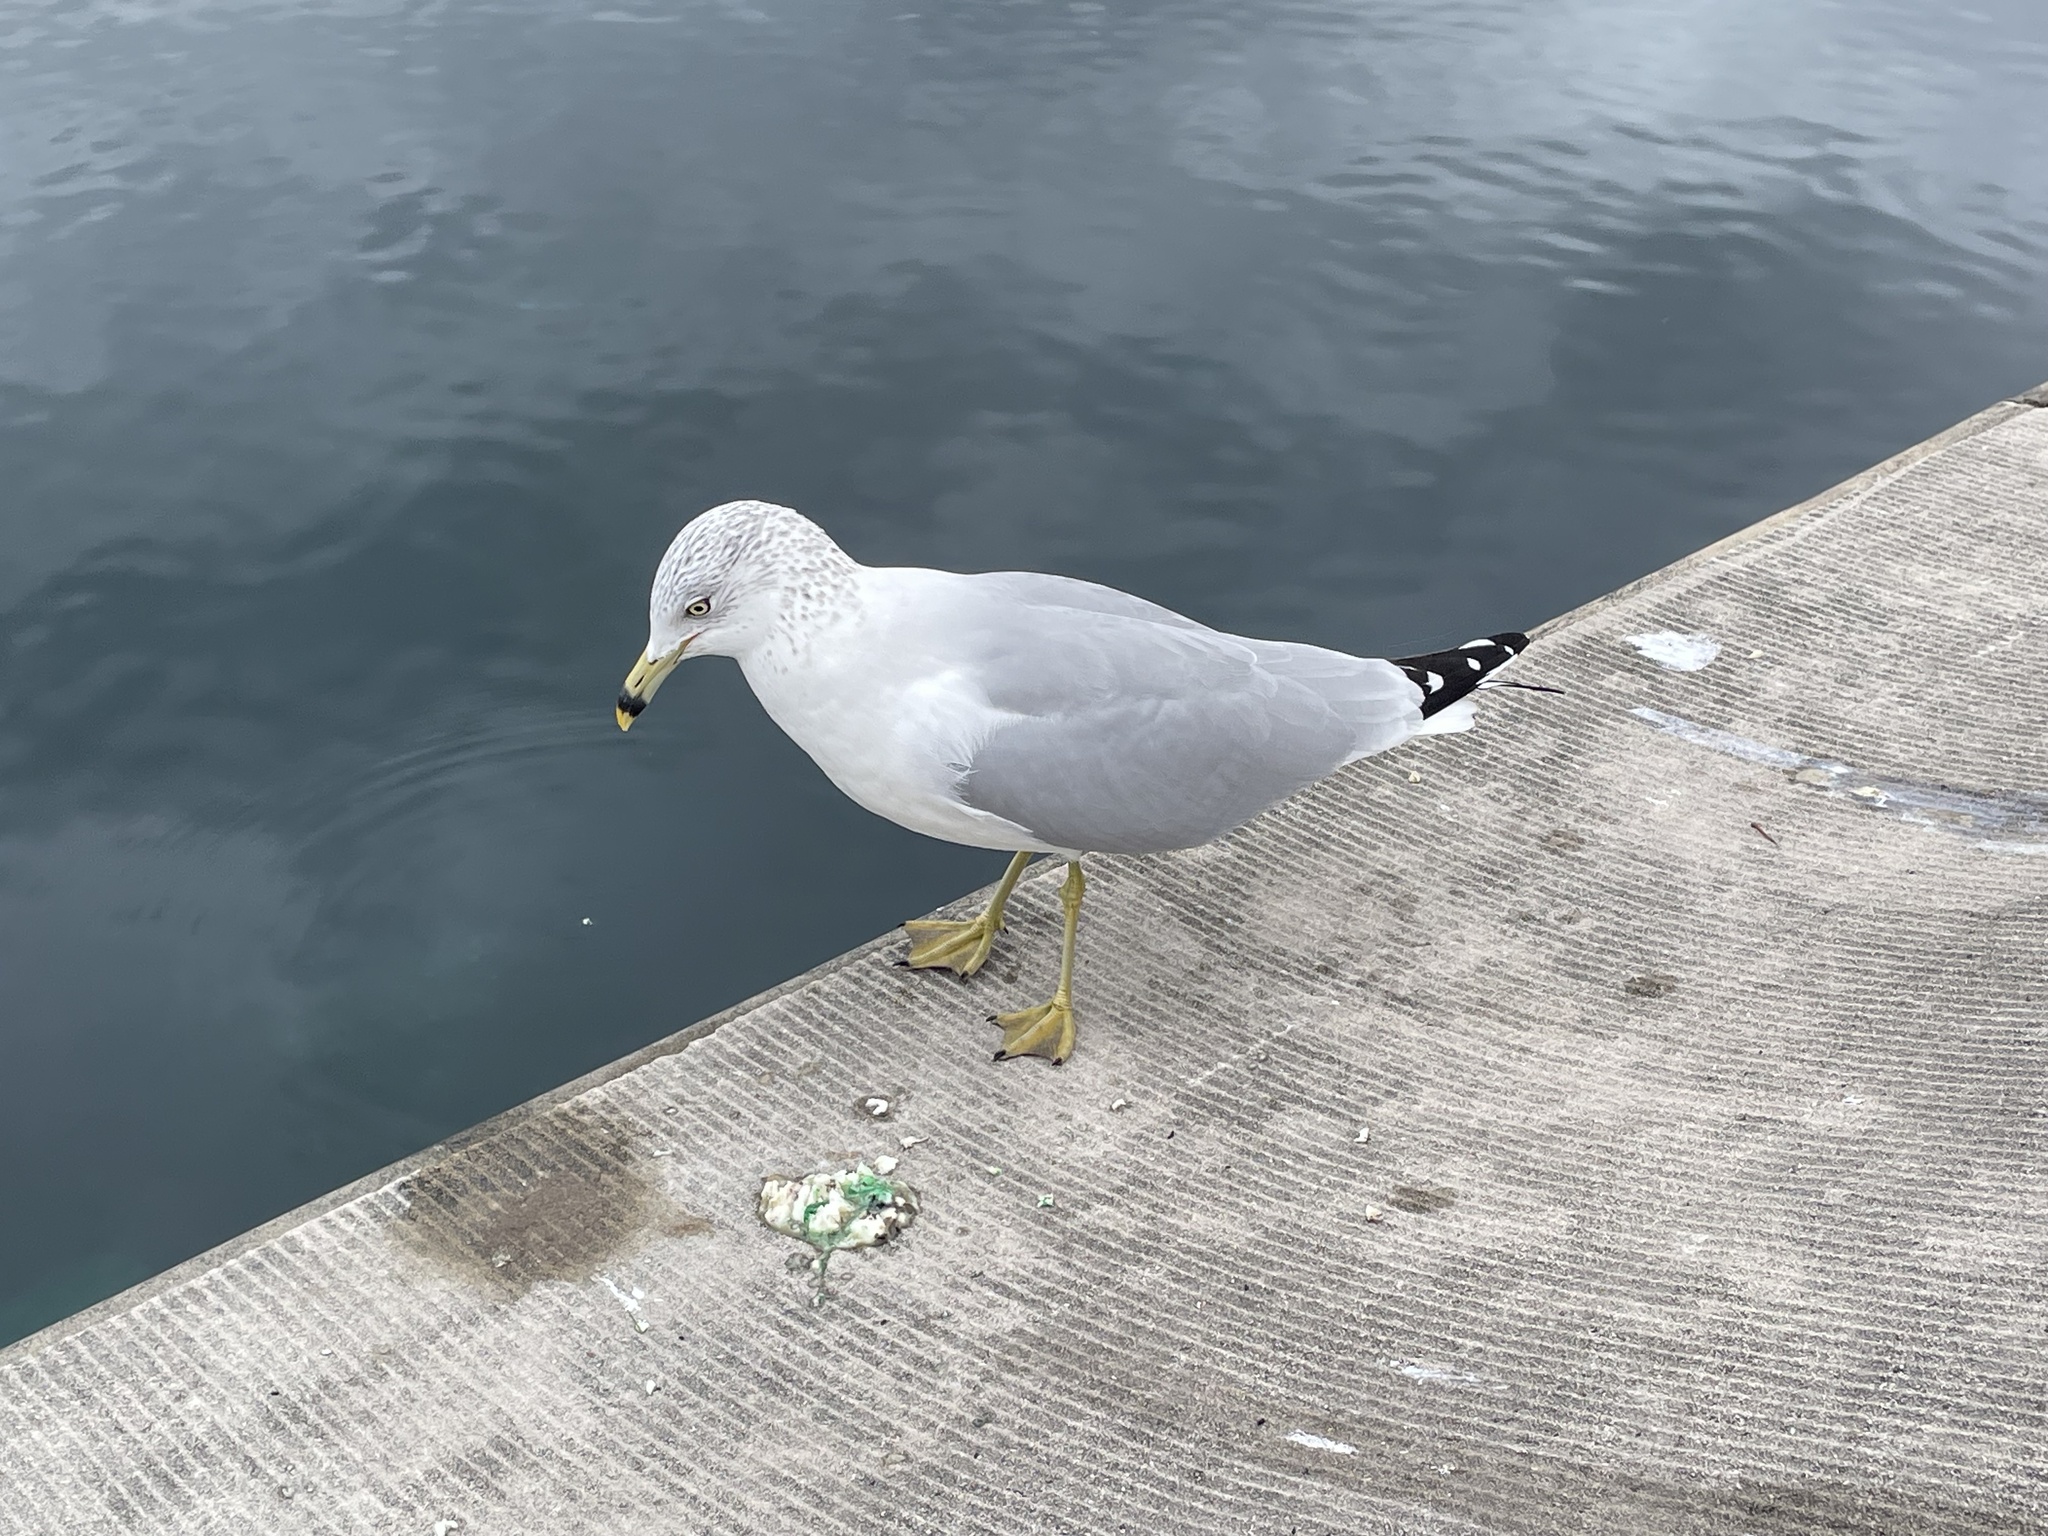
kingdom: Animalia
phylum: Chordata
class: Aves
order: Charadriiformes
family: Laridae
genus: Larus
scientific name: Larus delawarensis
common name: Ring-billed gull
